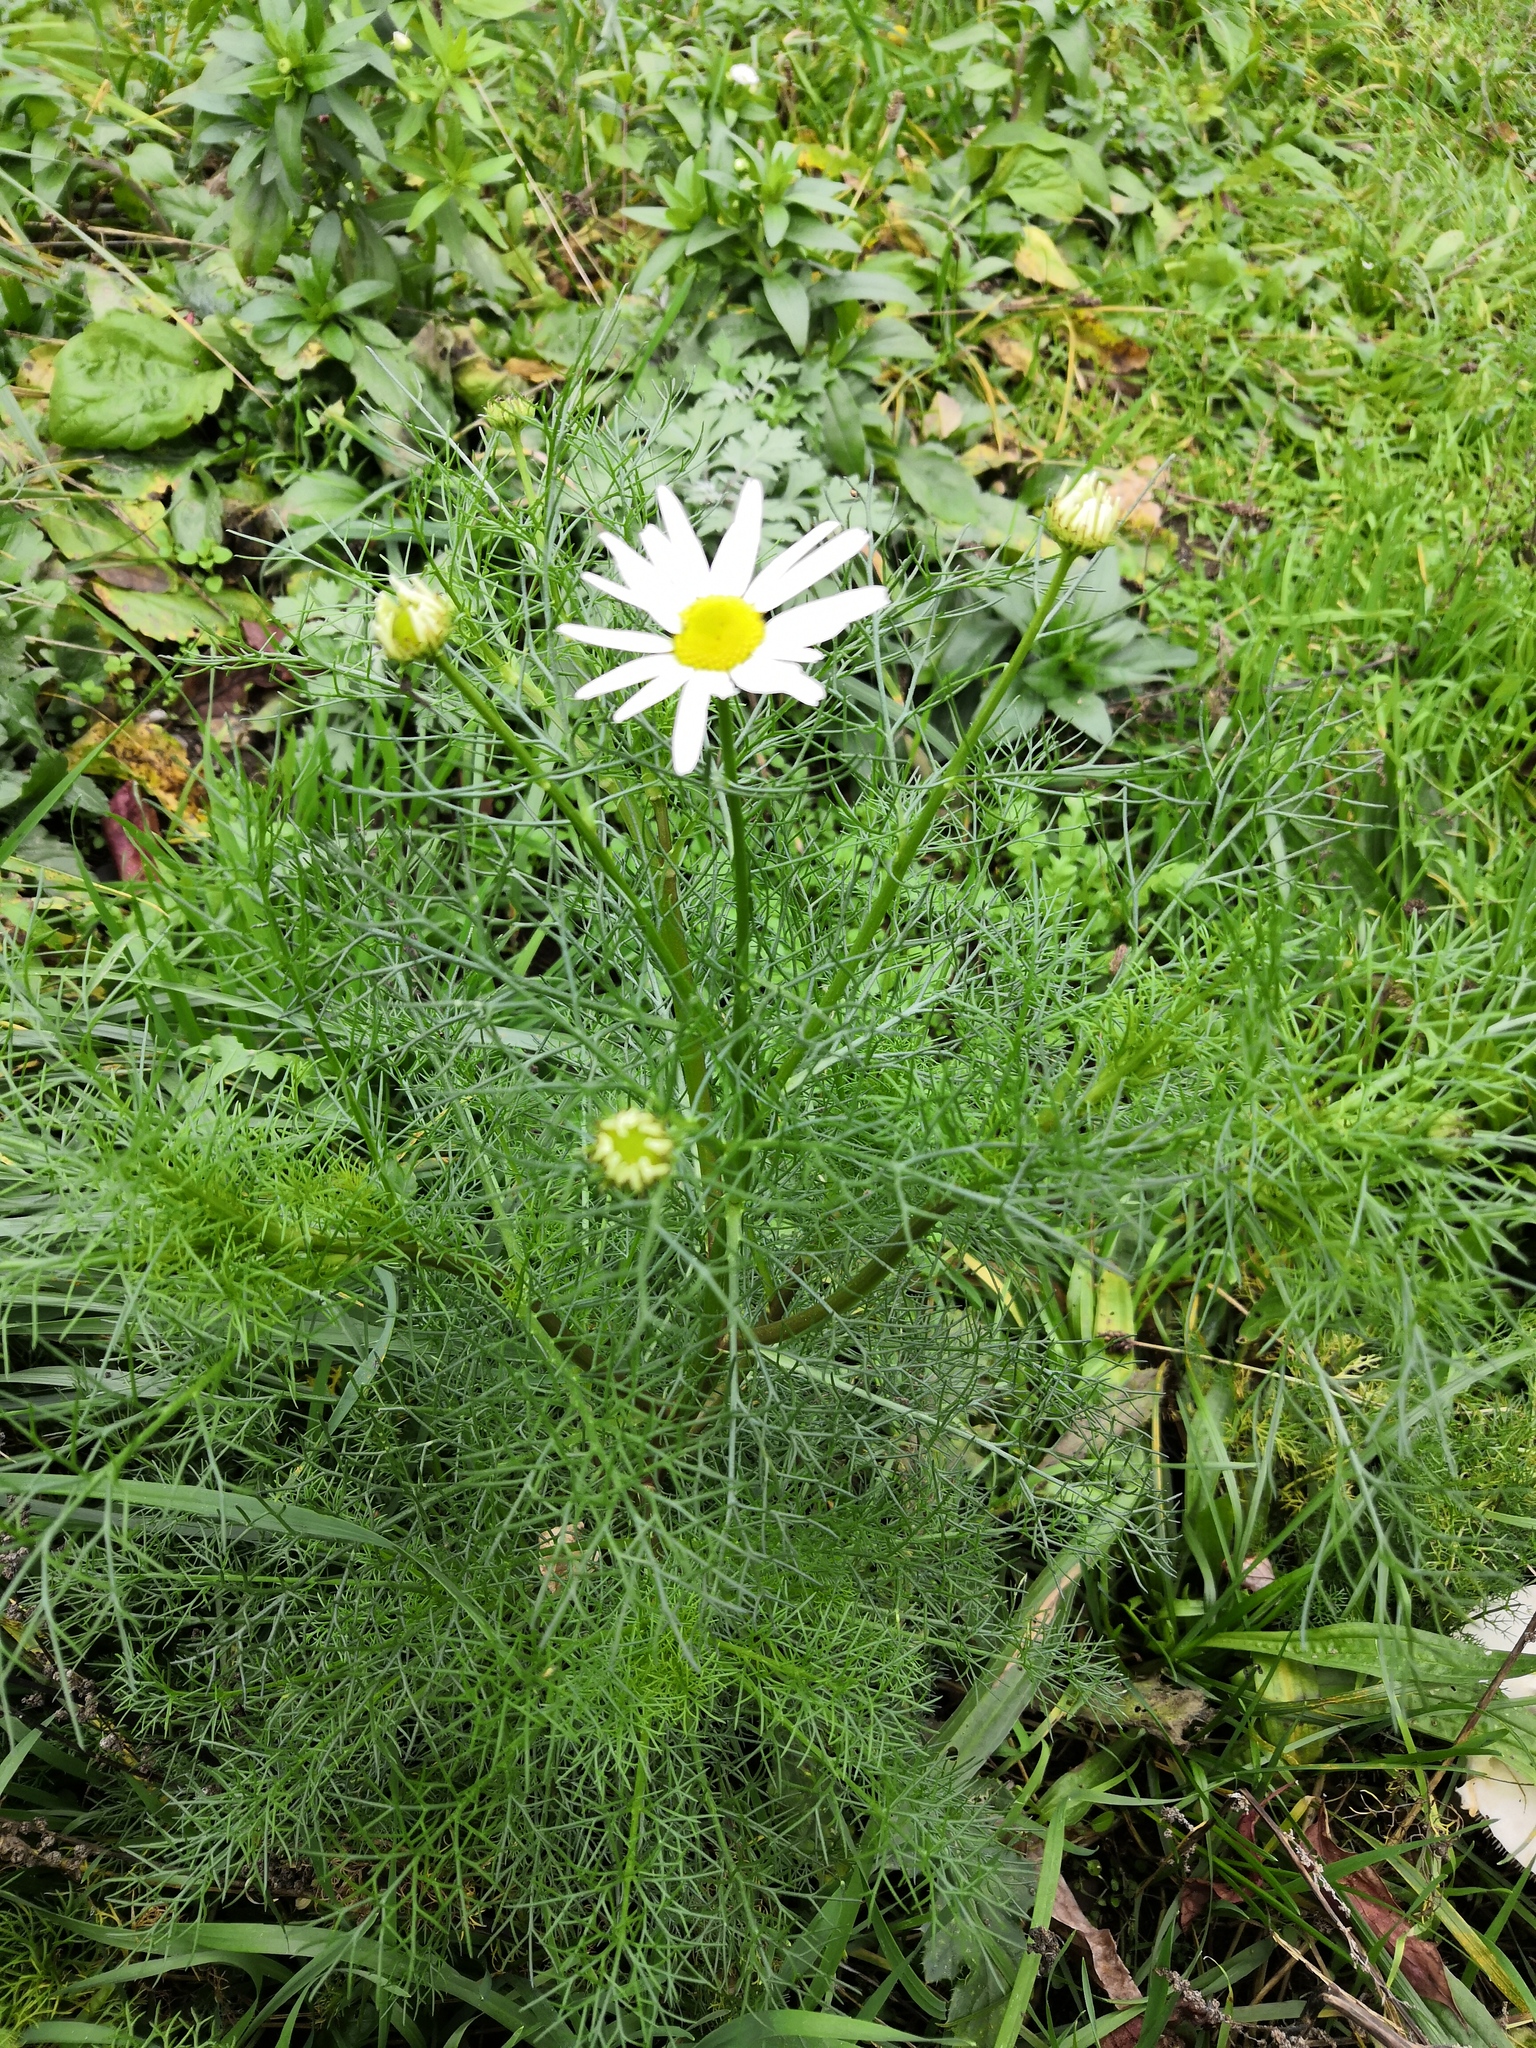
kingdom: Plantae
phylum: Tracheophyta
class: Magnoliopsida
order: Asterales
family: Asteraceae
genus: Tripleurospermum
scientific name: Tripleurospermum inodorum
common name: Scentless mayweed
